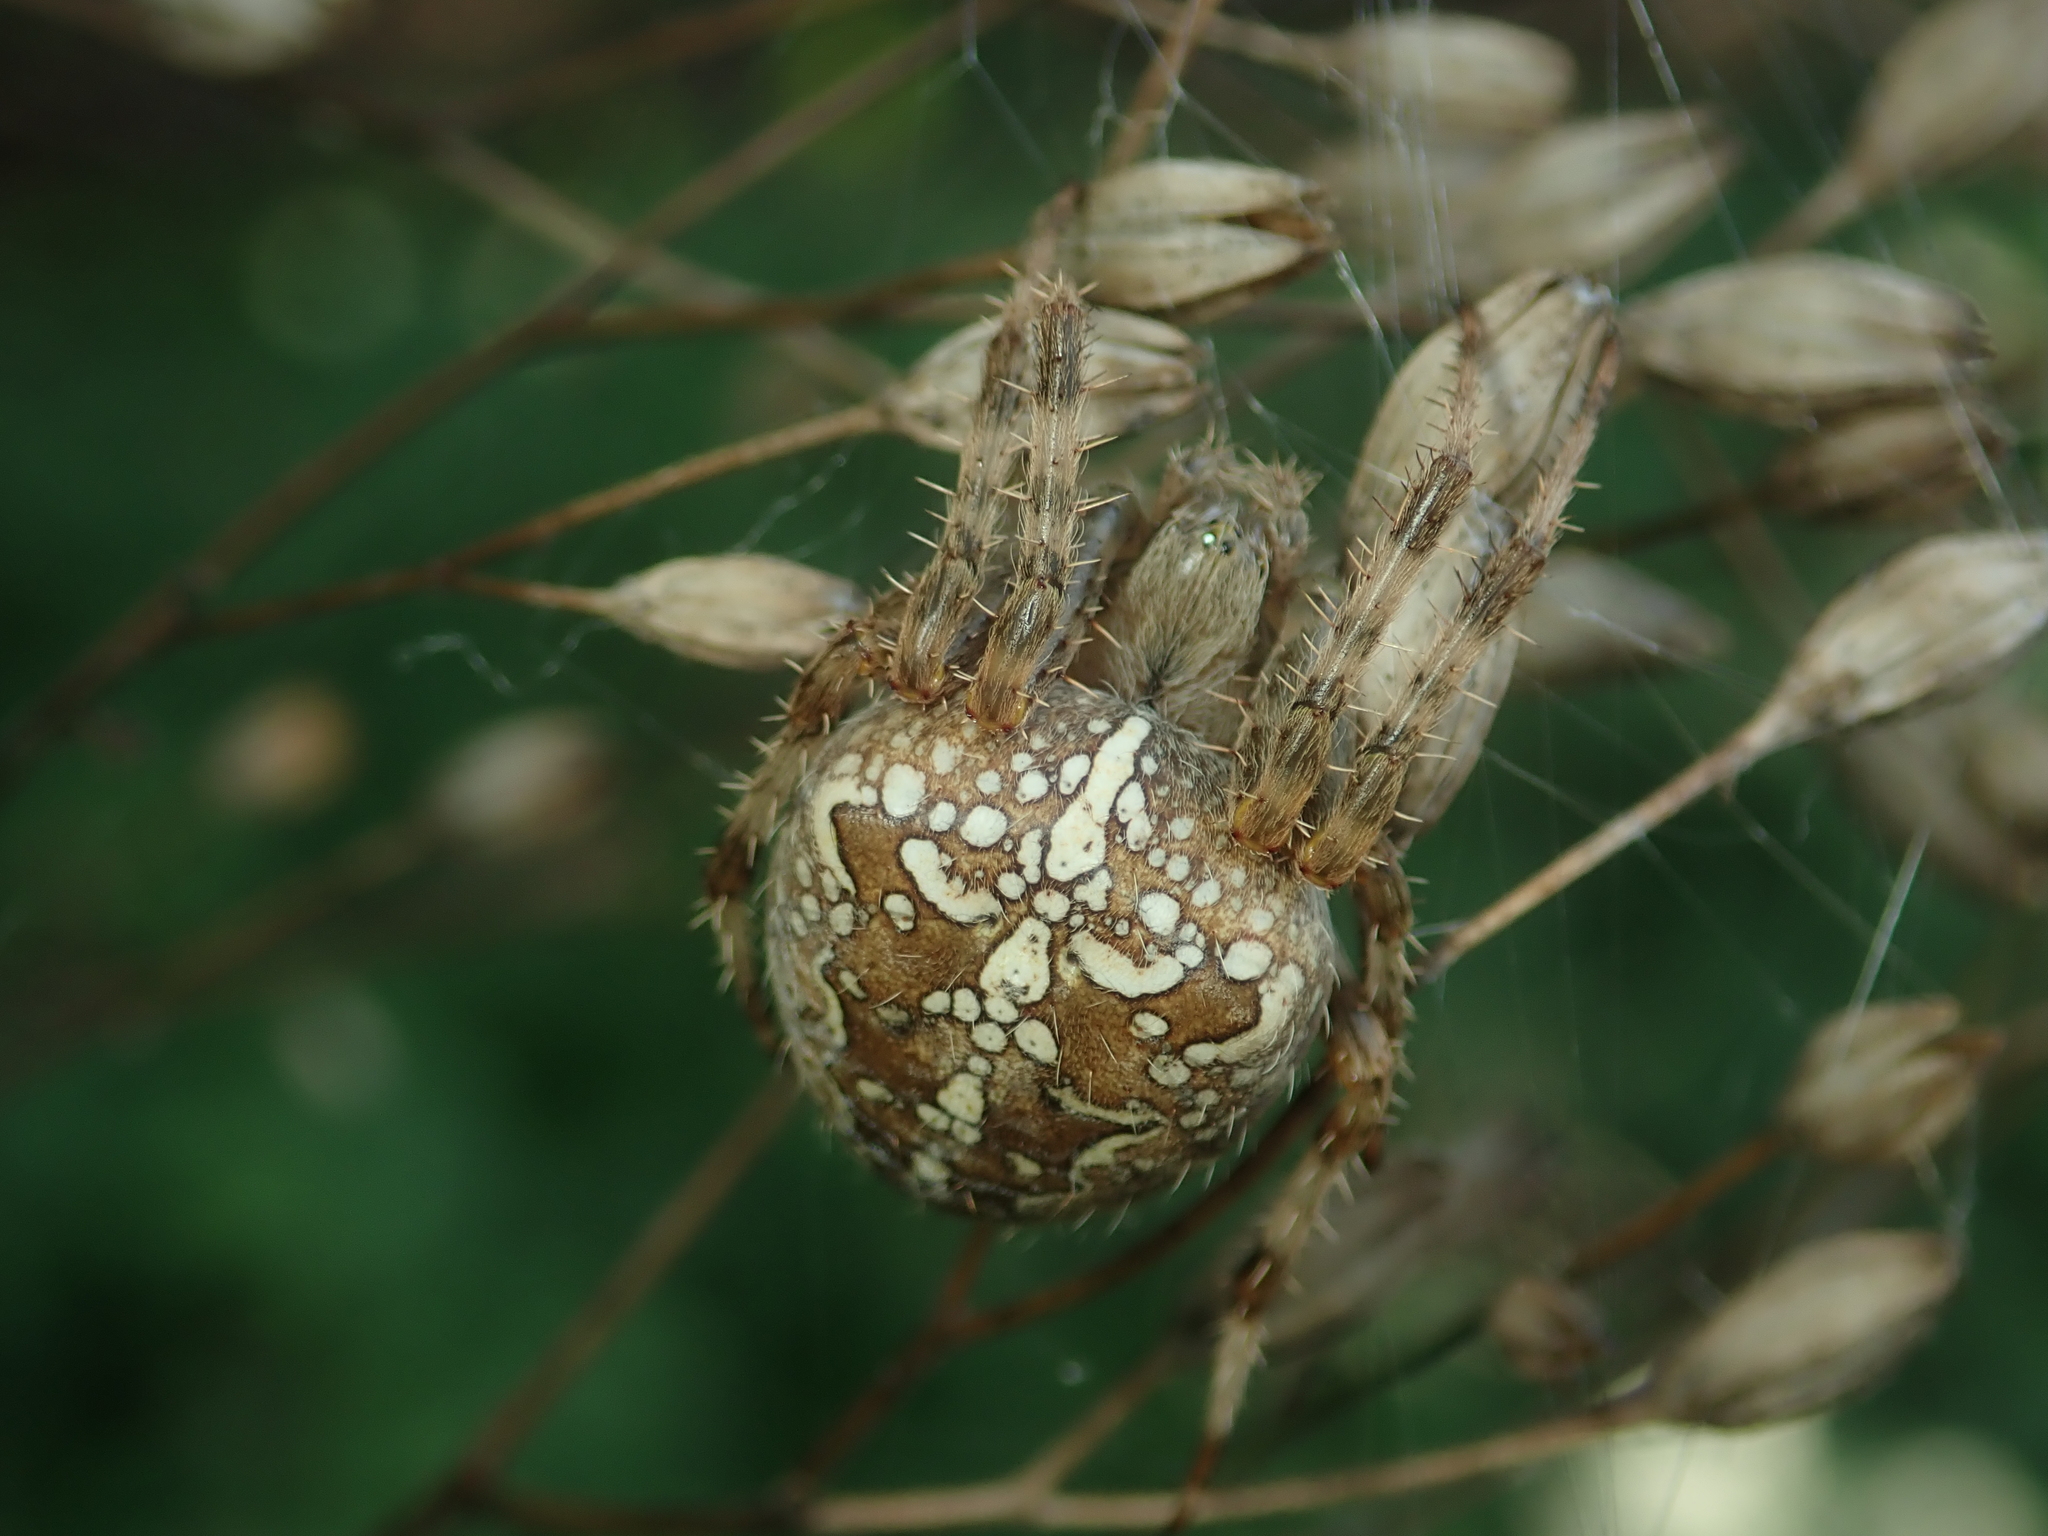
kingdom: Animalia
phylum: Arthropoda
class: Arachnida
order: Araneae
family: Araneidae
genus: Araneus
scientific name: Araneus diadematus
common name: Cross orbweaver
